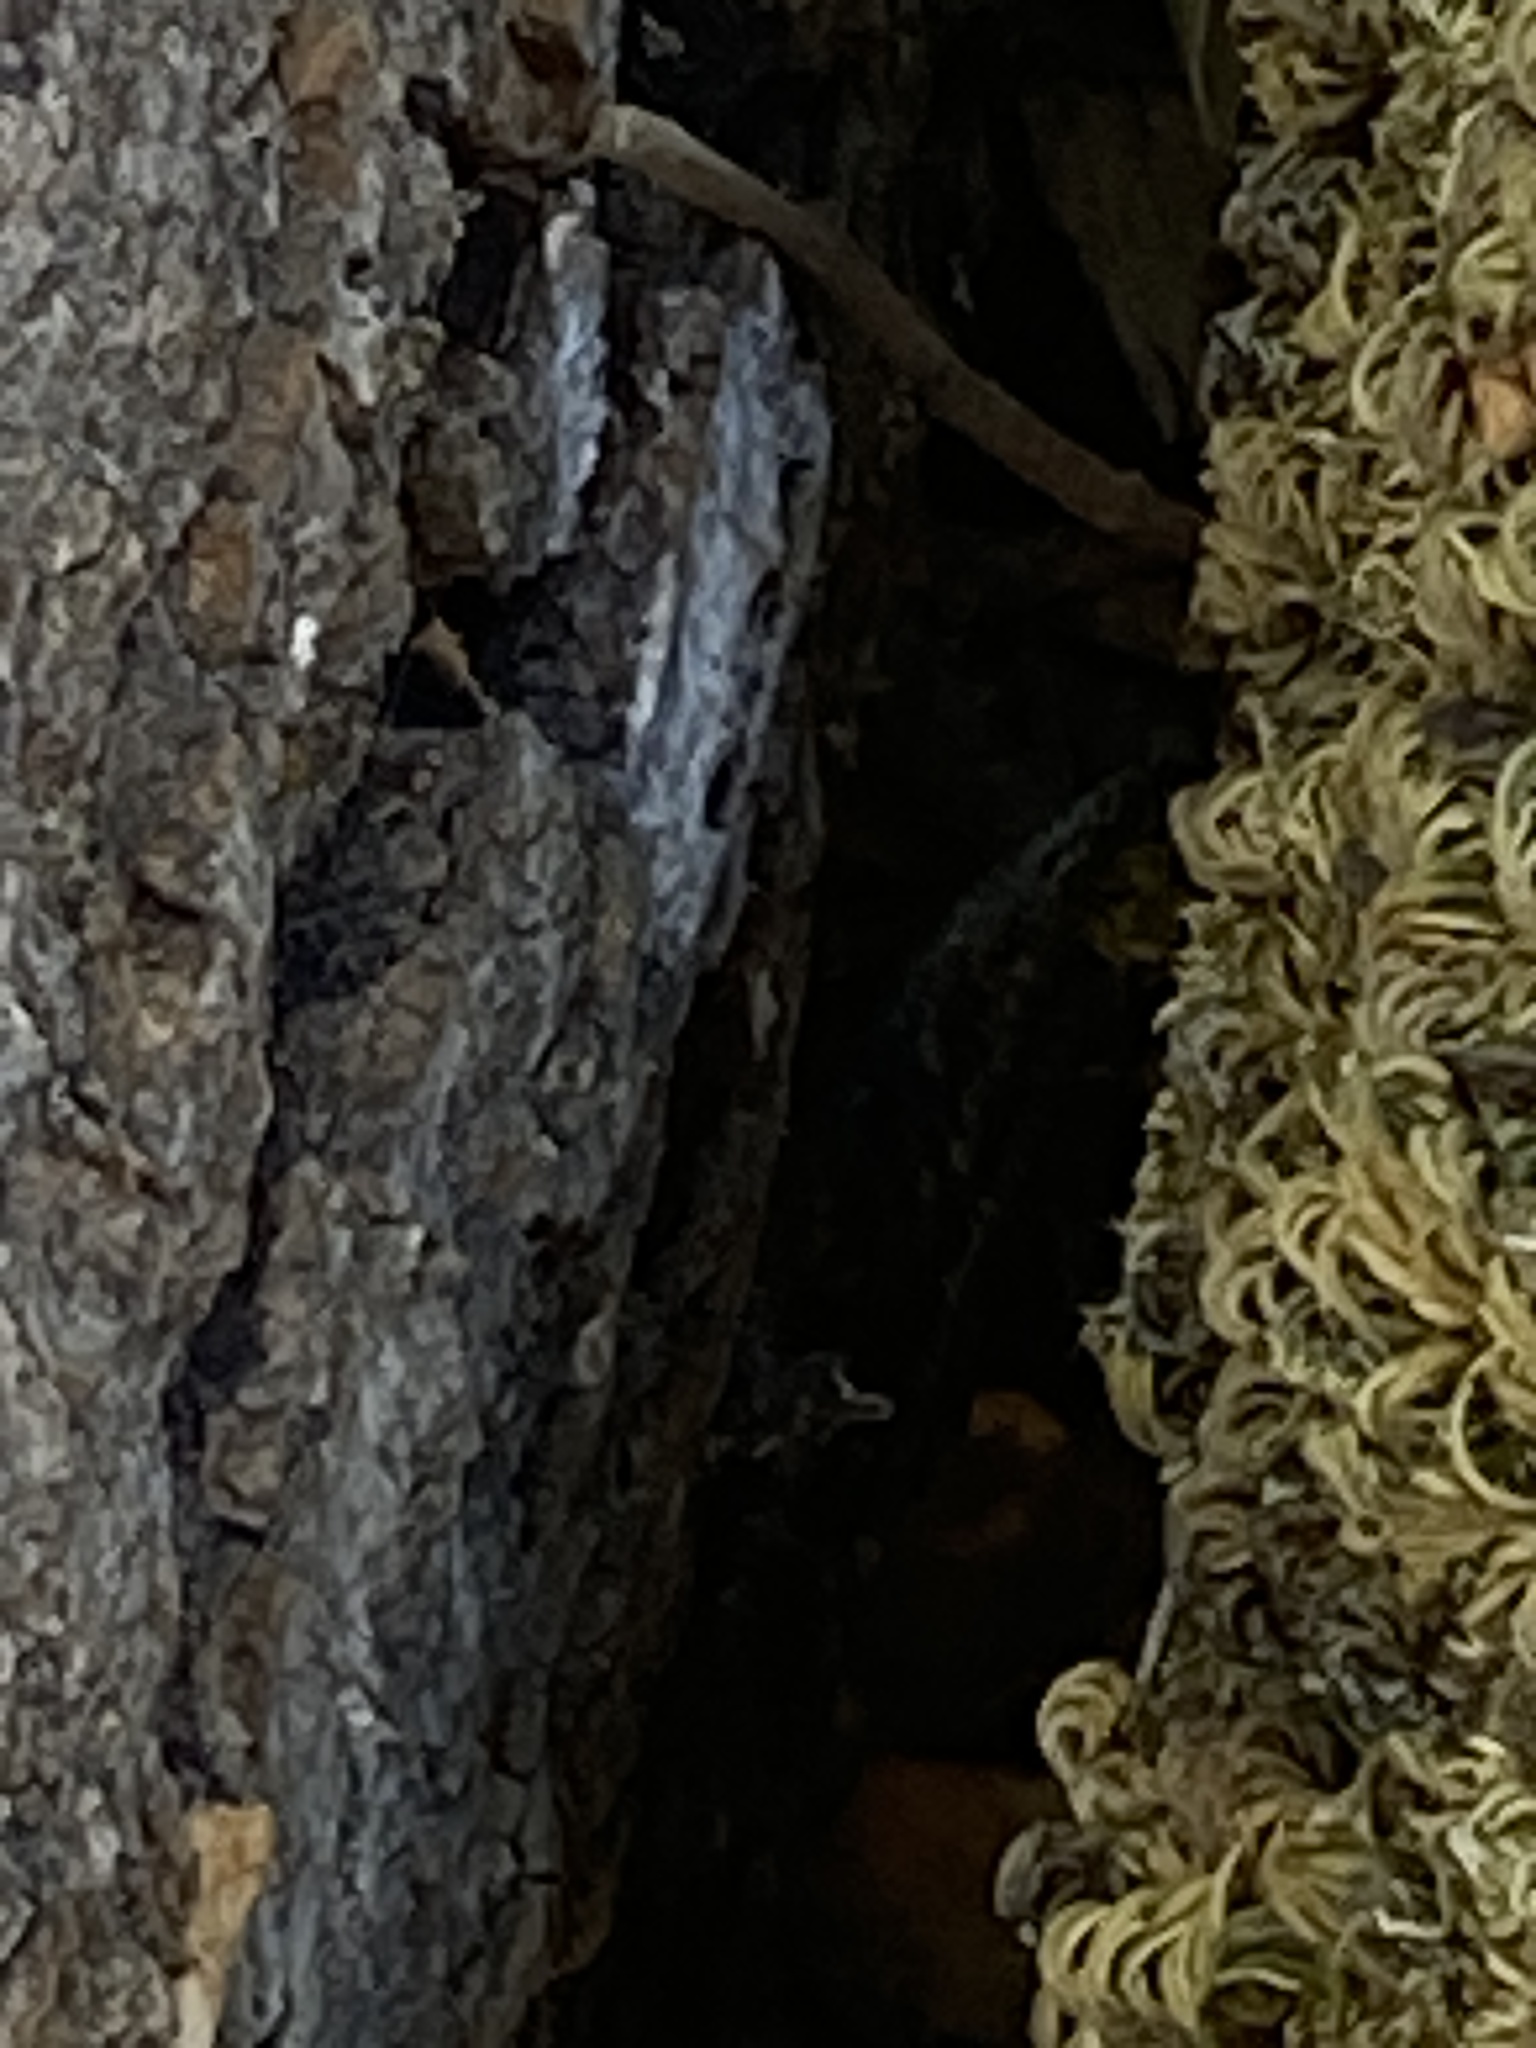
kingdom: Animalia
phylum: Chordata
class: Squamata
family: Phrynosomatidae
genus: Sceloporus
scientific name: Sceloporus occidentalis
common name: Western fence lizard
